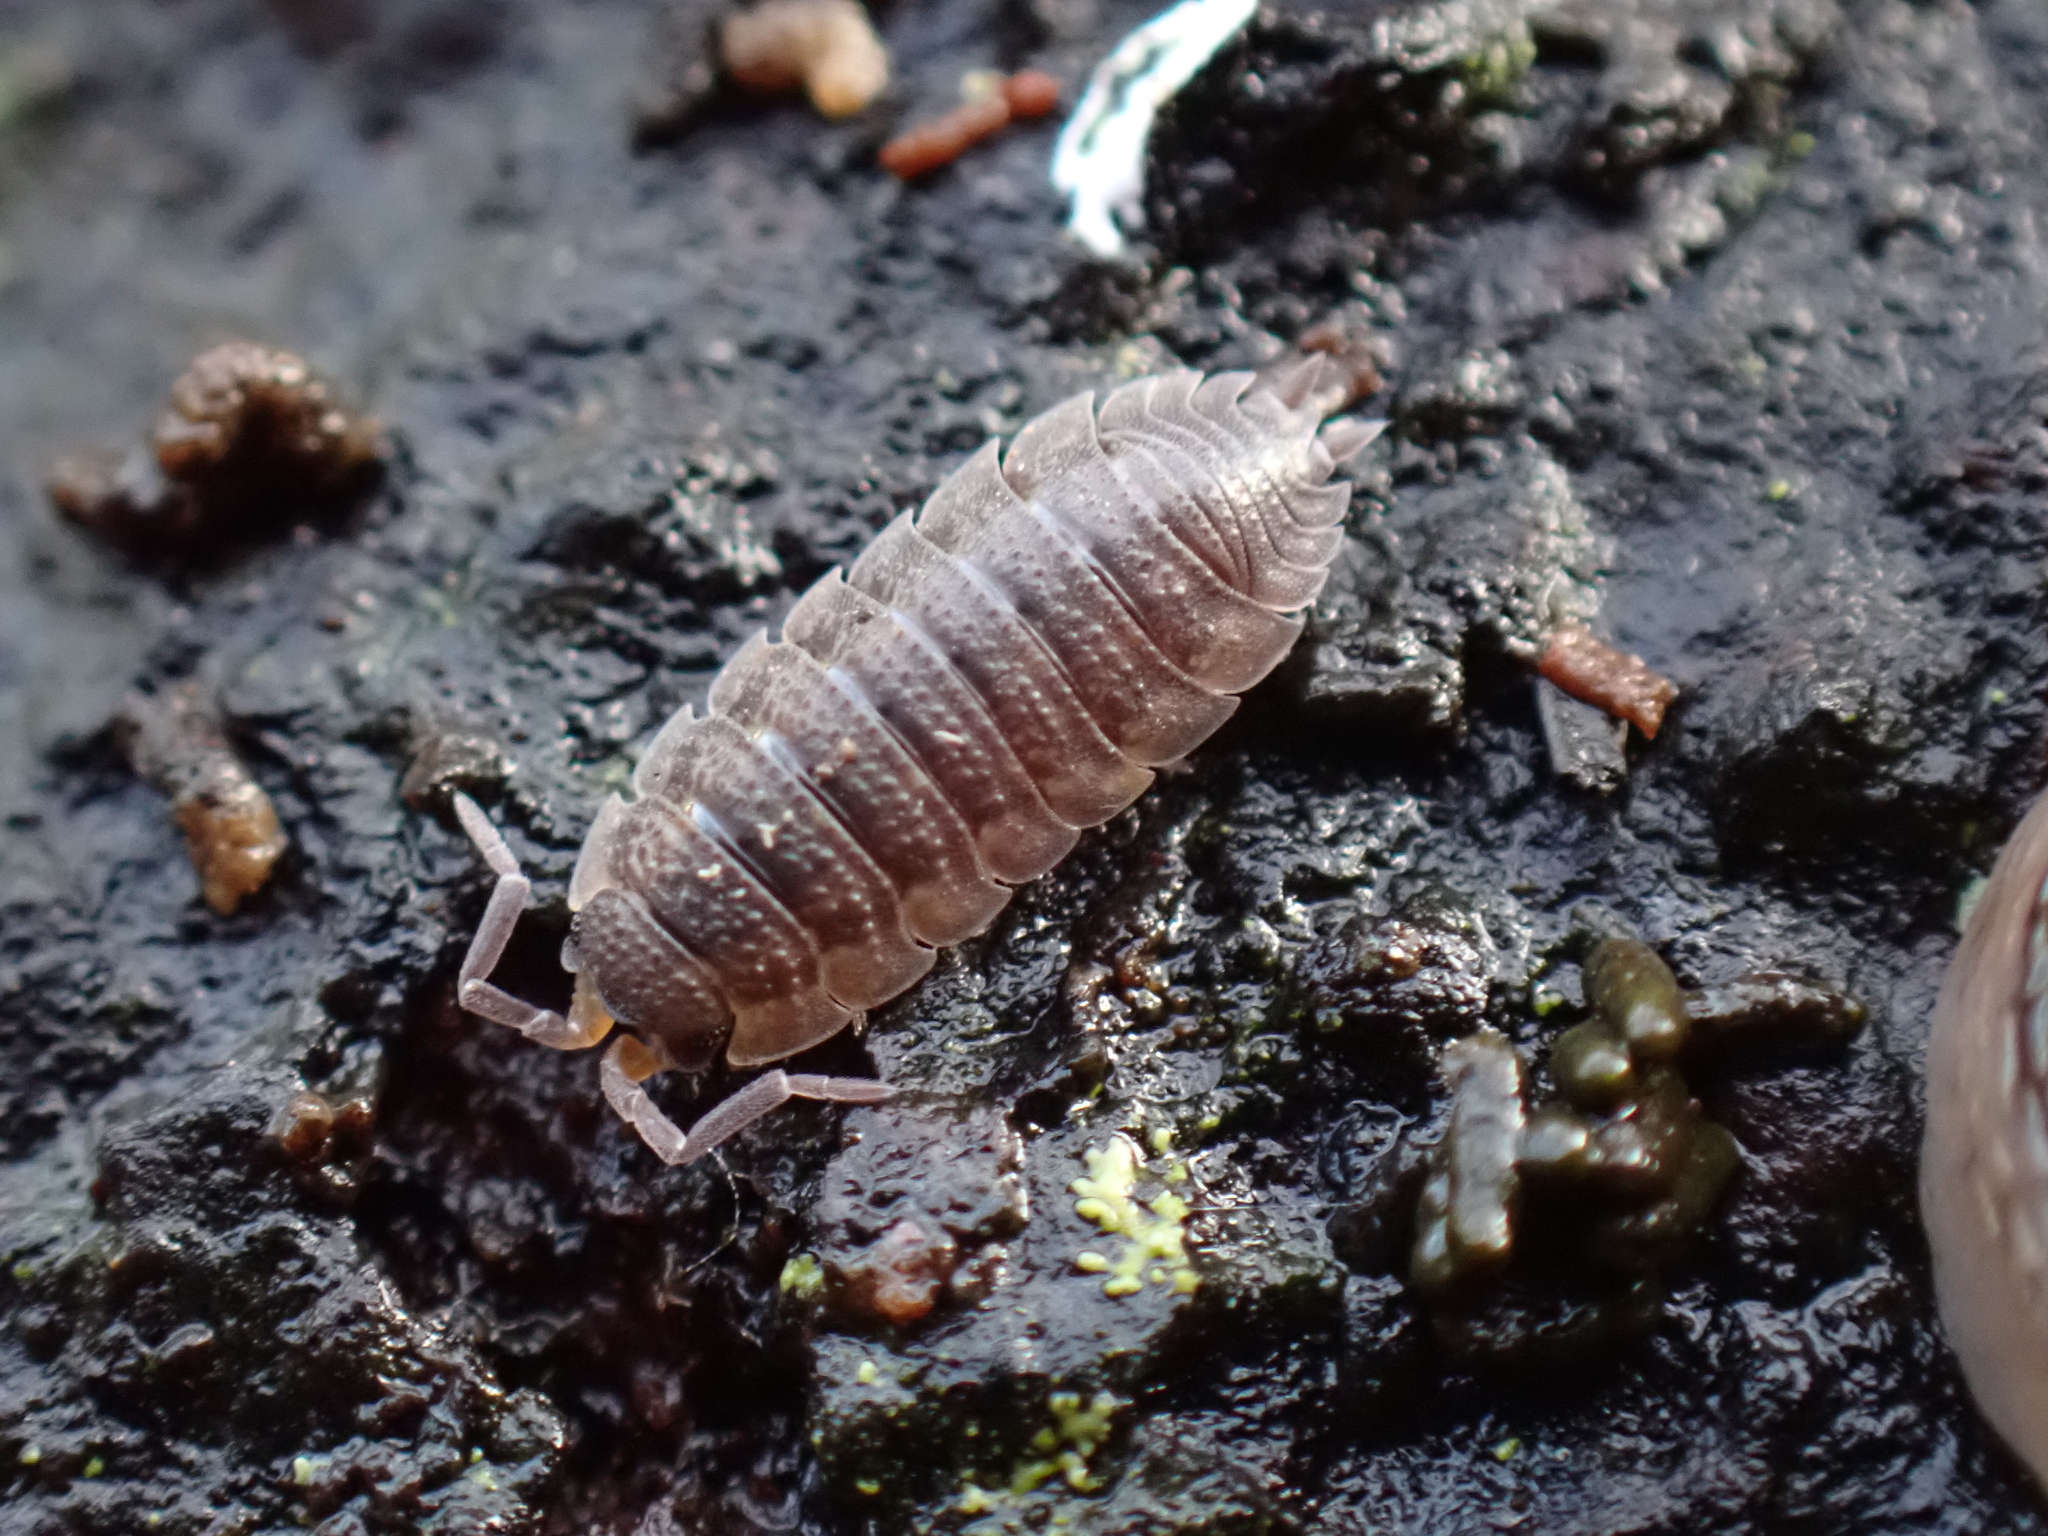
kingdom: Animalia
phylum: Arthropoda
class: Malacostraca
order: Isopoda
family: Porcellionidae
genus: Porcellio
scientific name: Porcellio scaber
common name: Common rough woodlouse
